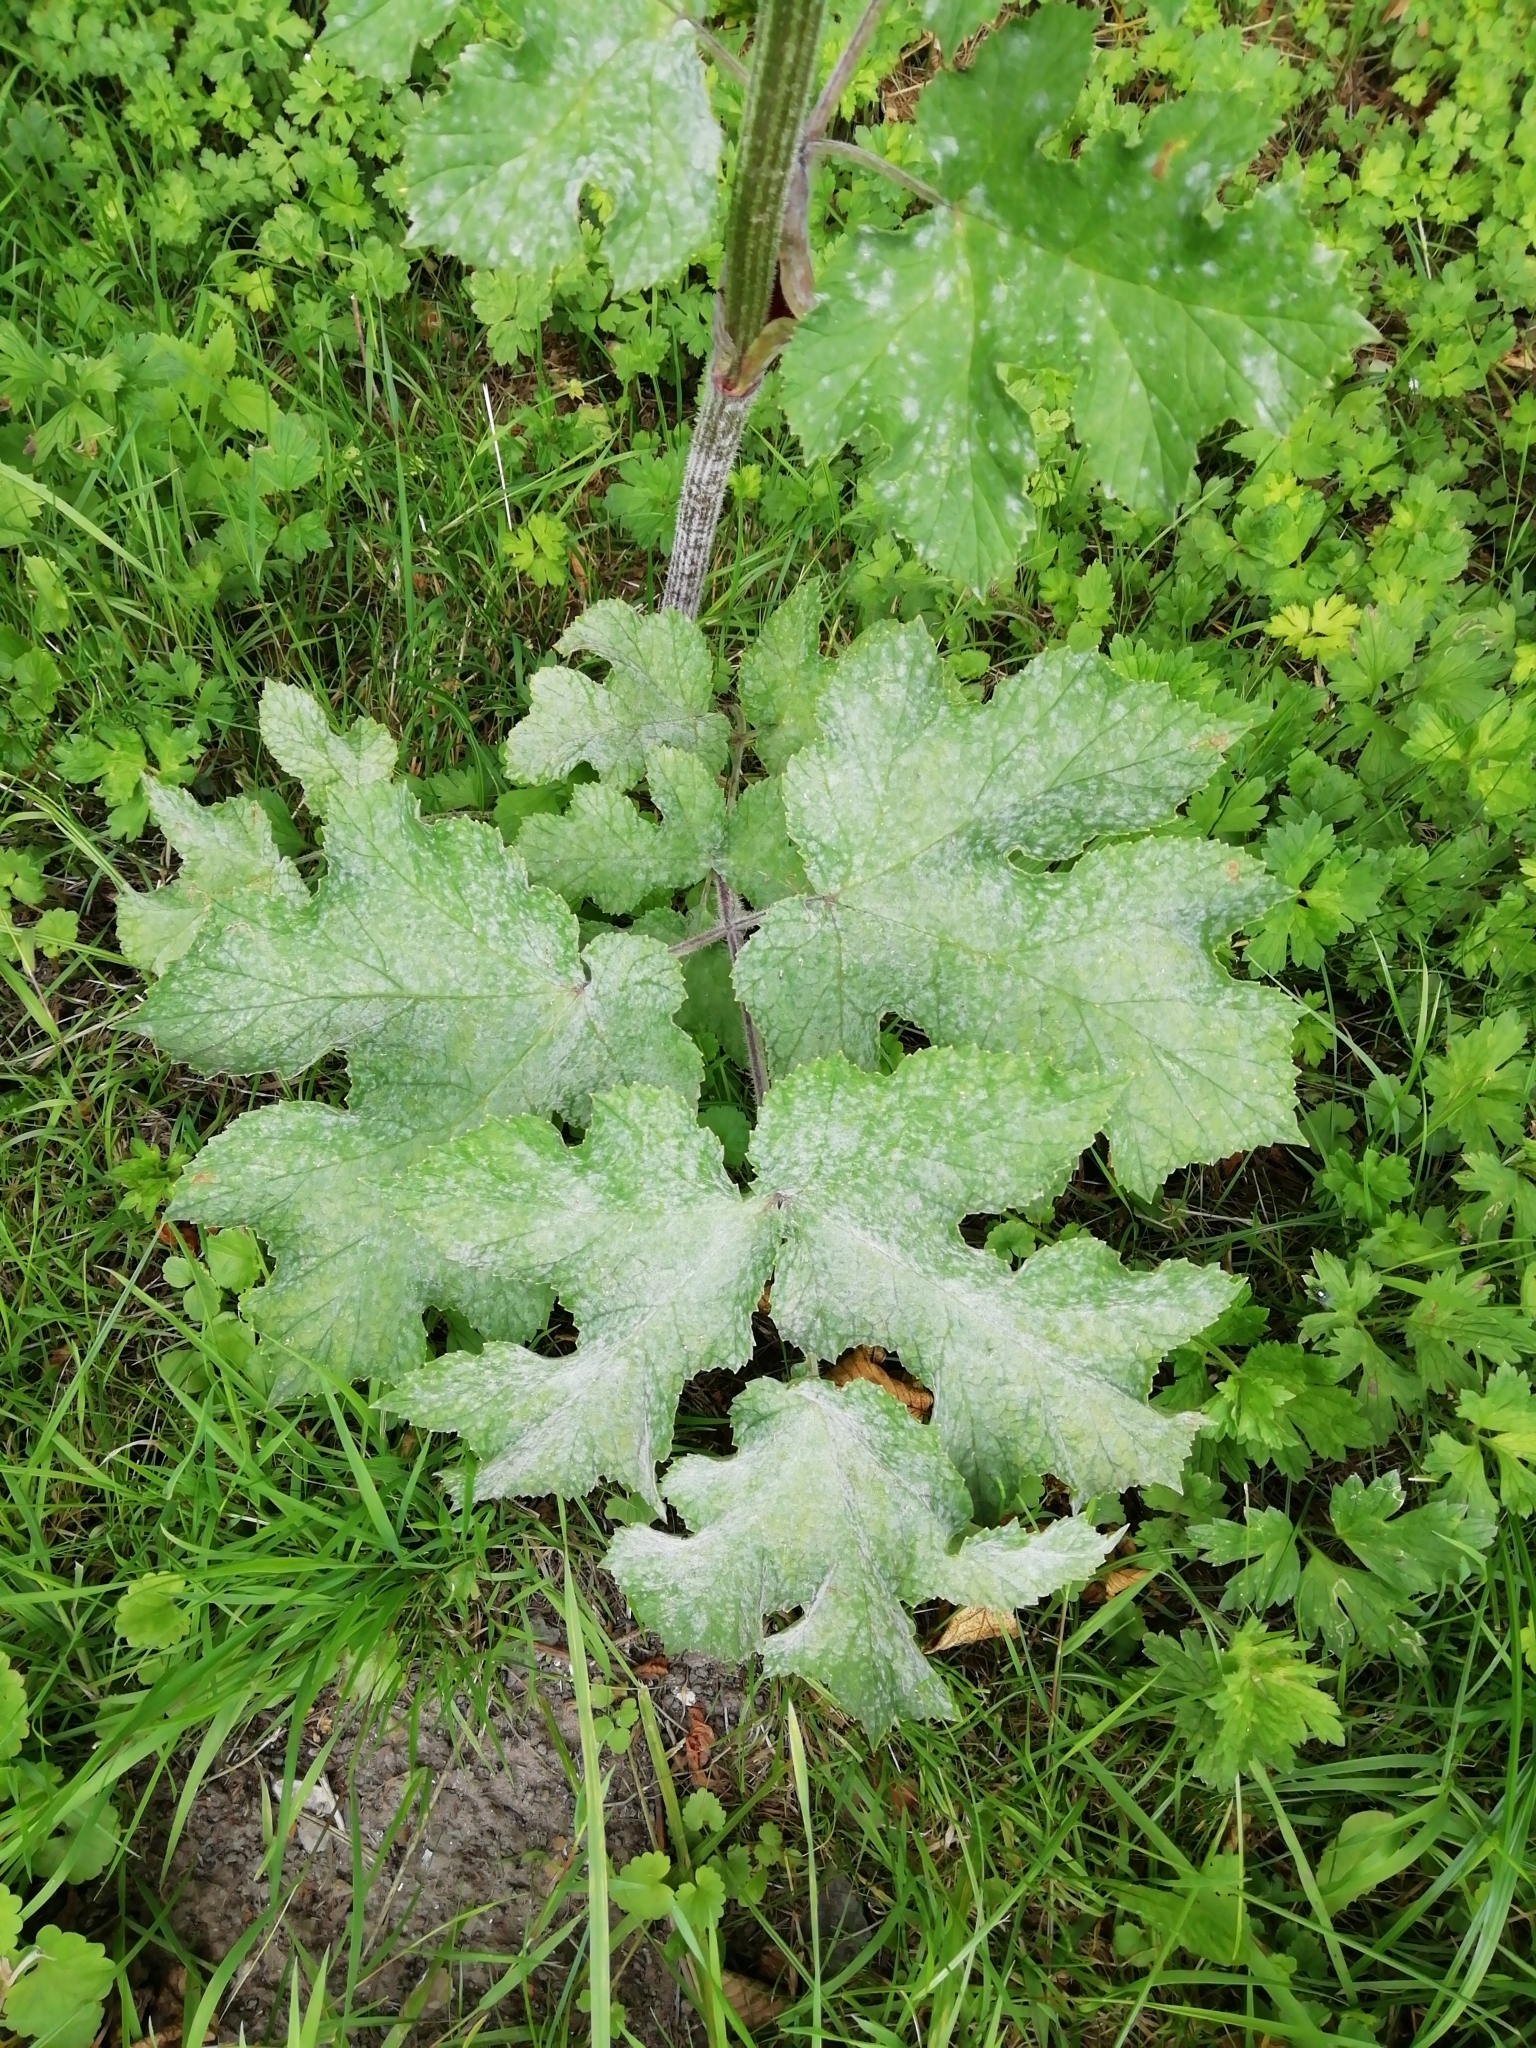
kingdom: Plantae
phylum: Tracheophyta
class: Magnoliopsida
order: Apiales
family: Apiaceae
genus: Heracleum
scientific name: Heracleum sphondylium
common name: Hogweed
